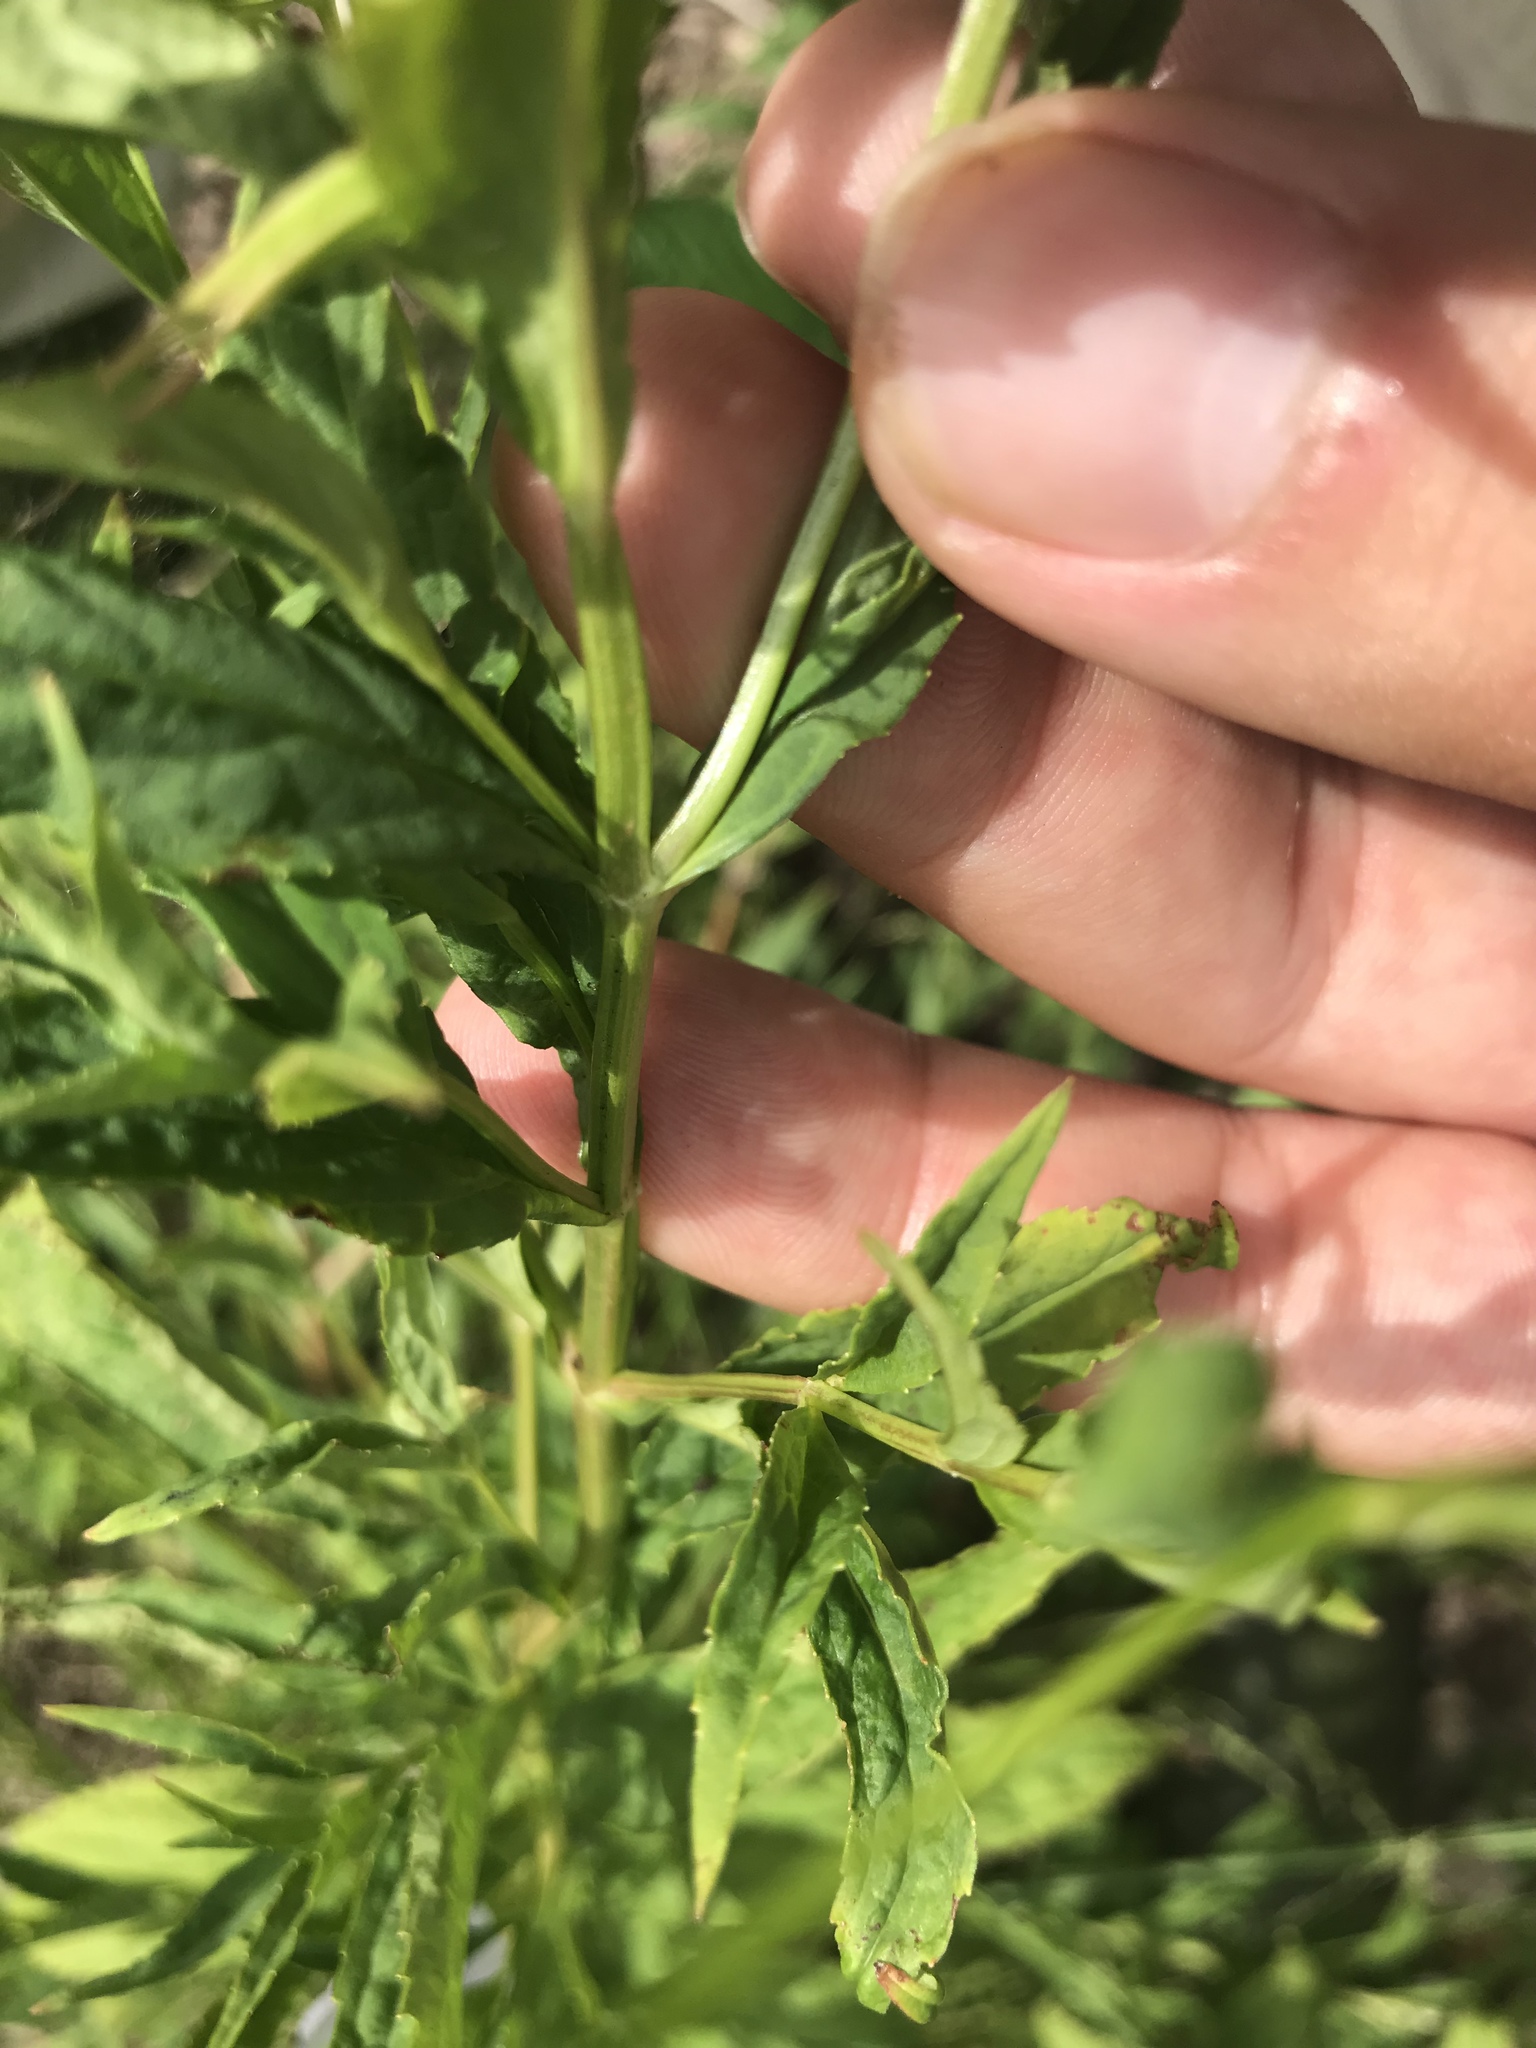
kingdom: Plantae
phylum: Tracheophyta
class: Magnoliopsida
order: Lamiales
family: Phrymaceae
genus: Mimulus
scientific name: Mimulus ringens
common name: Allegheny monkeyflower
